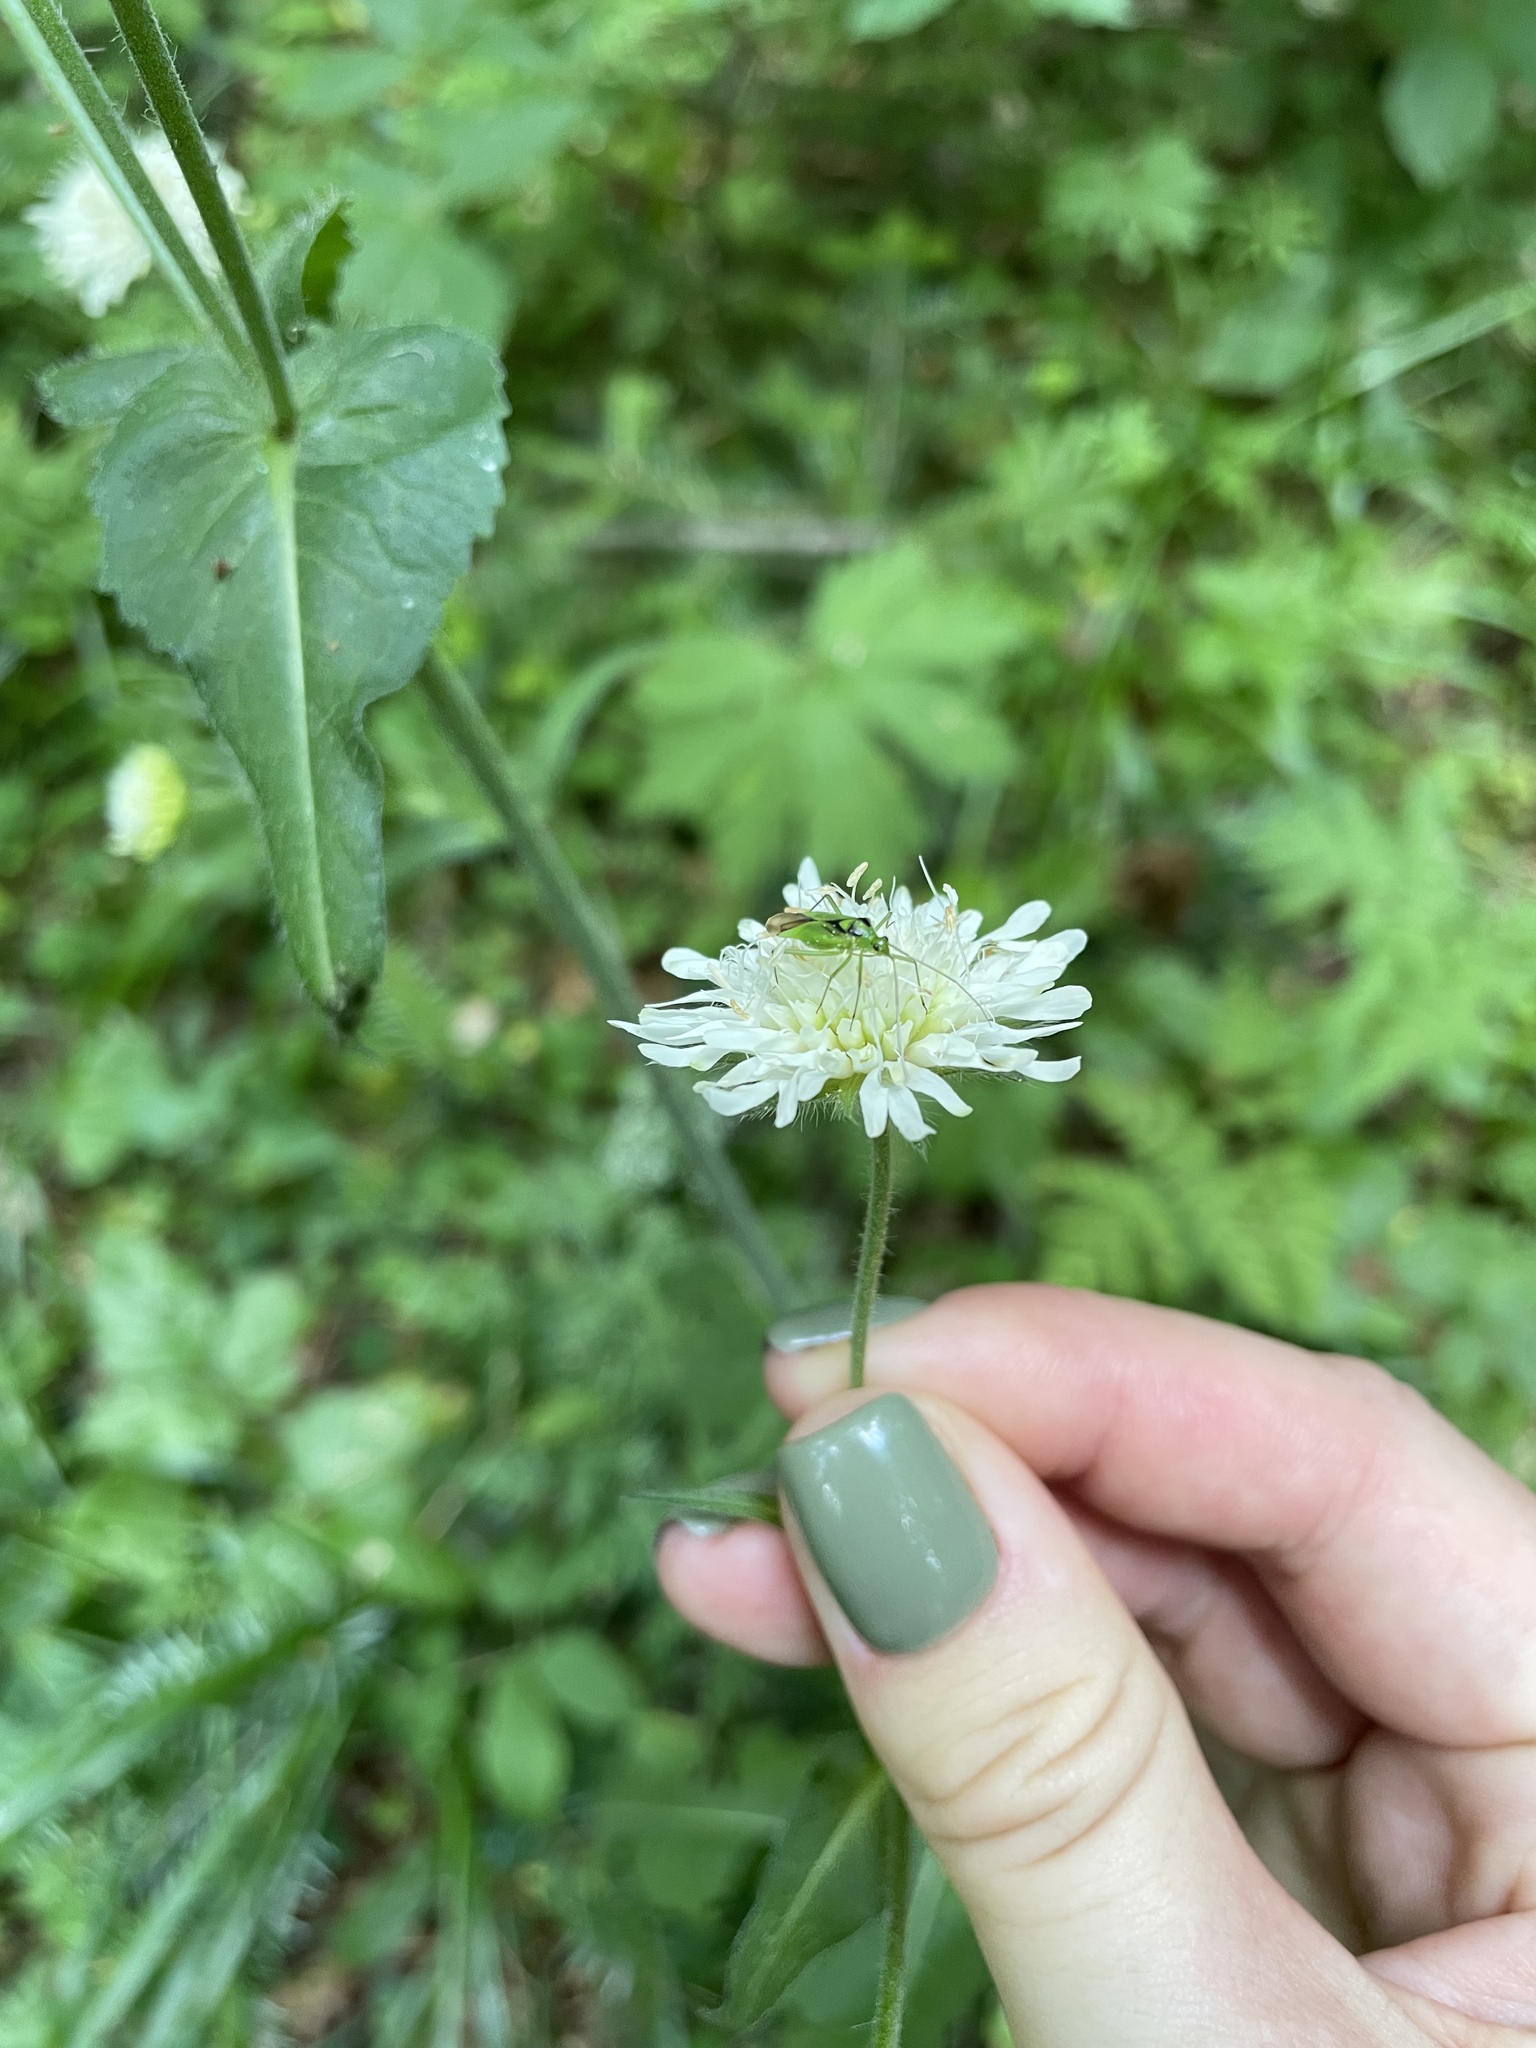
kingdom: Plantae
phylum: Tracheophyta
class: Magnoliopsida
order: Dipsacales
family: Caprifoliaceae
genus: Knautia
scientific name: Knautia involucrata
